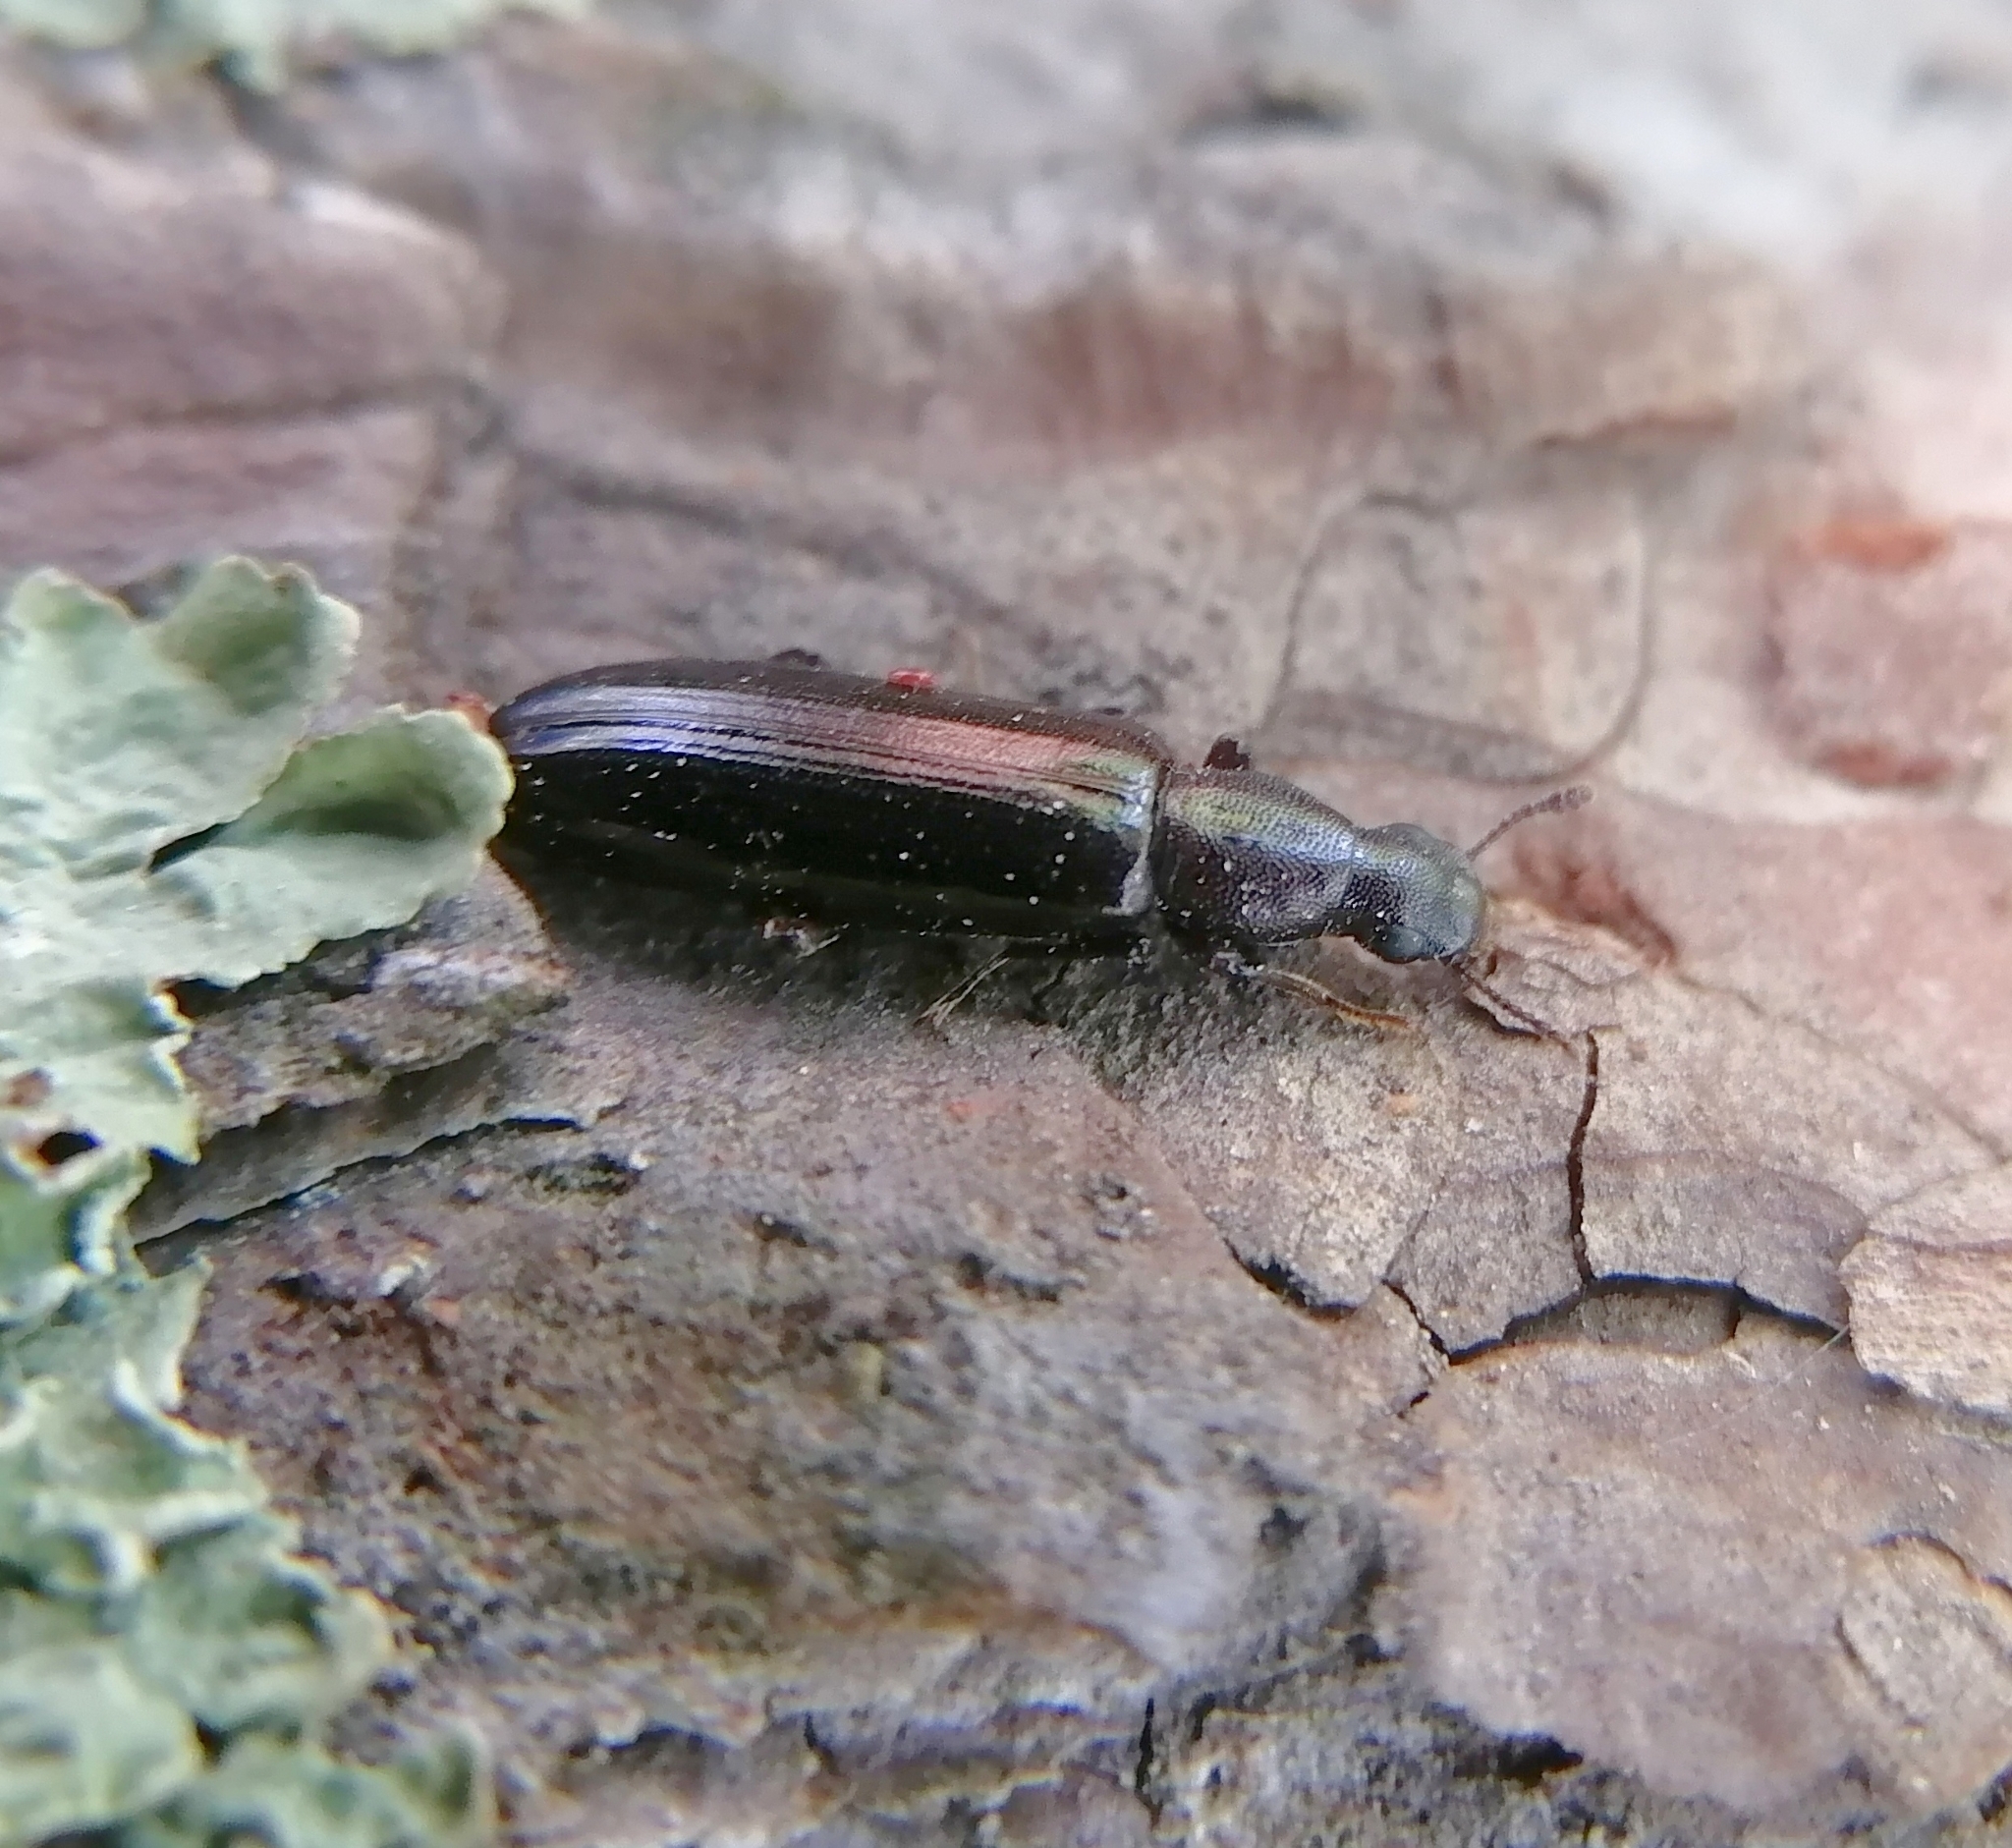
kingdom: Animalia
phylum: Arthropoda
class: Insecta
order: Coleoptera
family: Boridae
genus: Boros
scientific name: Boros schneideri
